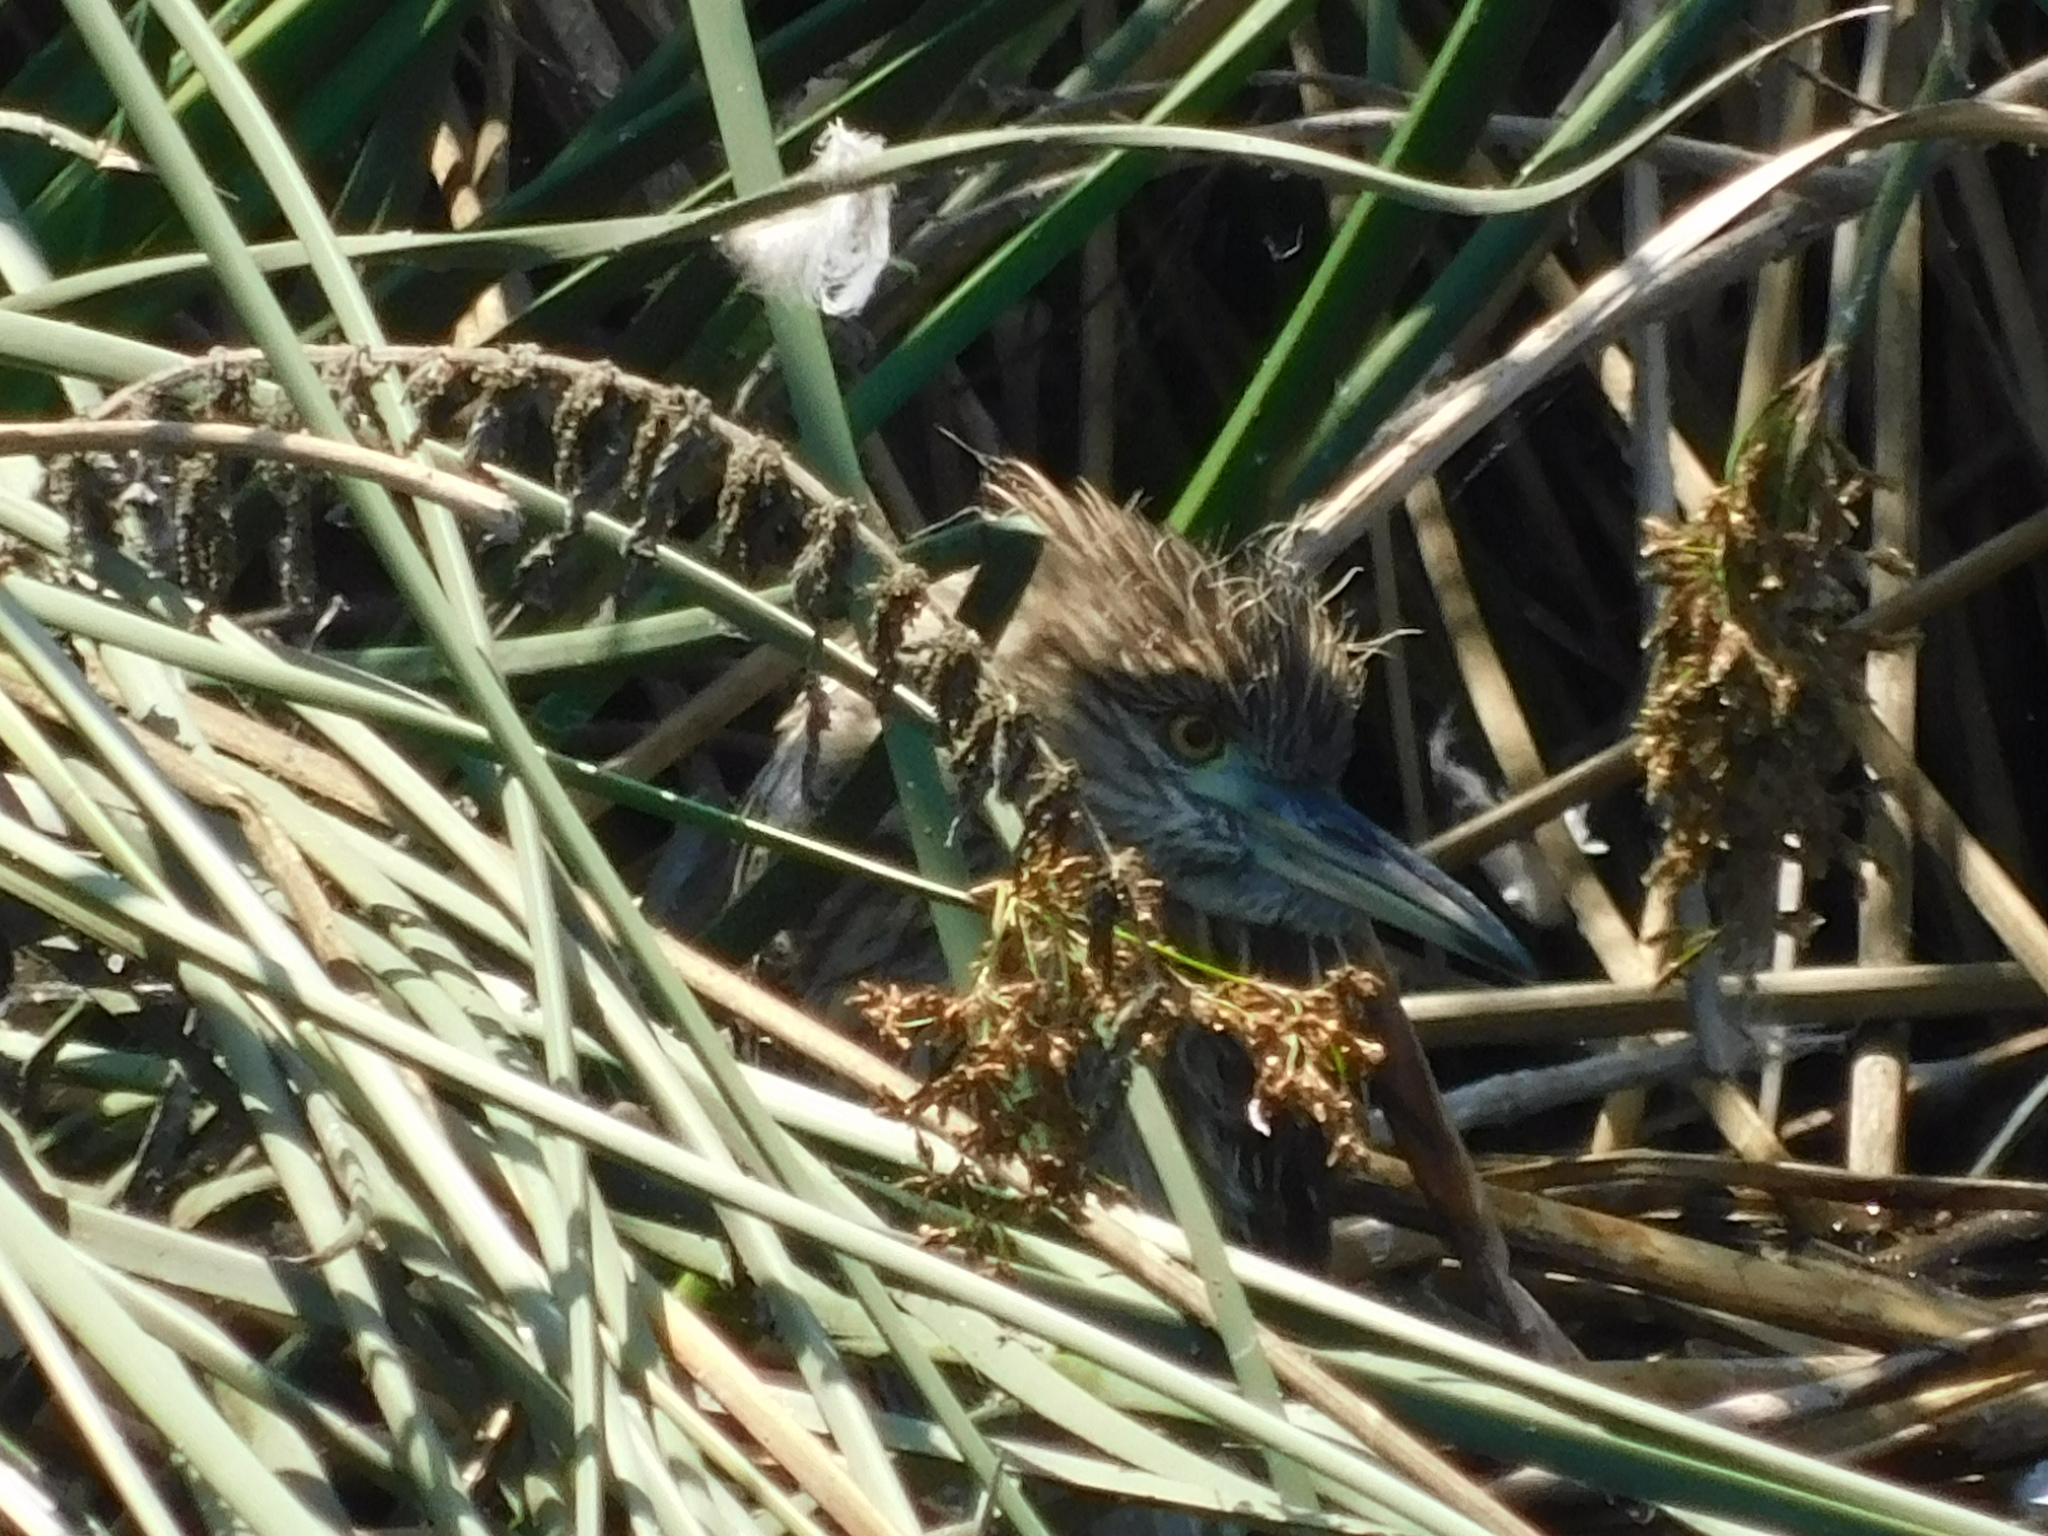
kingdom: Animalia
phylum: Chordata
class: Aves
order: Pelecaniformes
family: Ardeidae
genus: Nycticorax
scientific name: Nycticorax nycticorax
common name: Black-crowned night heron
